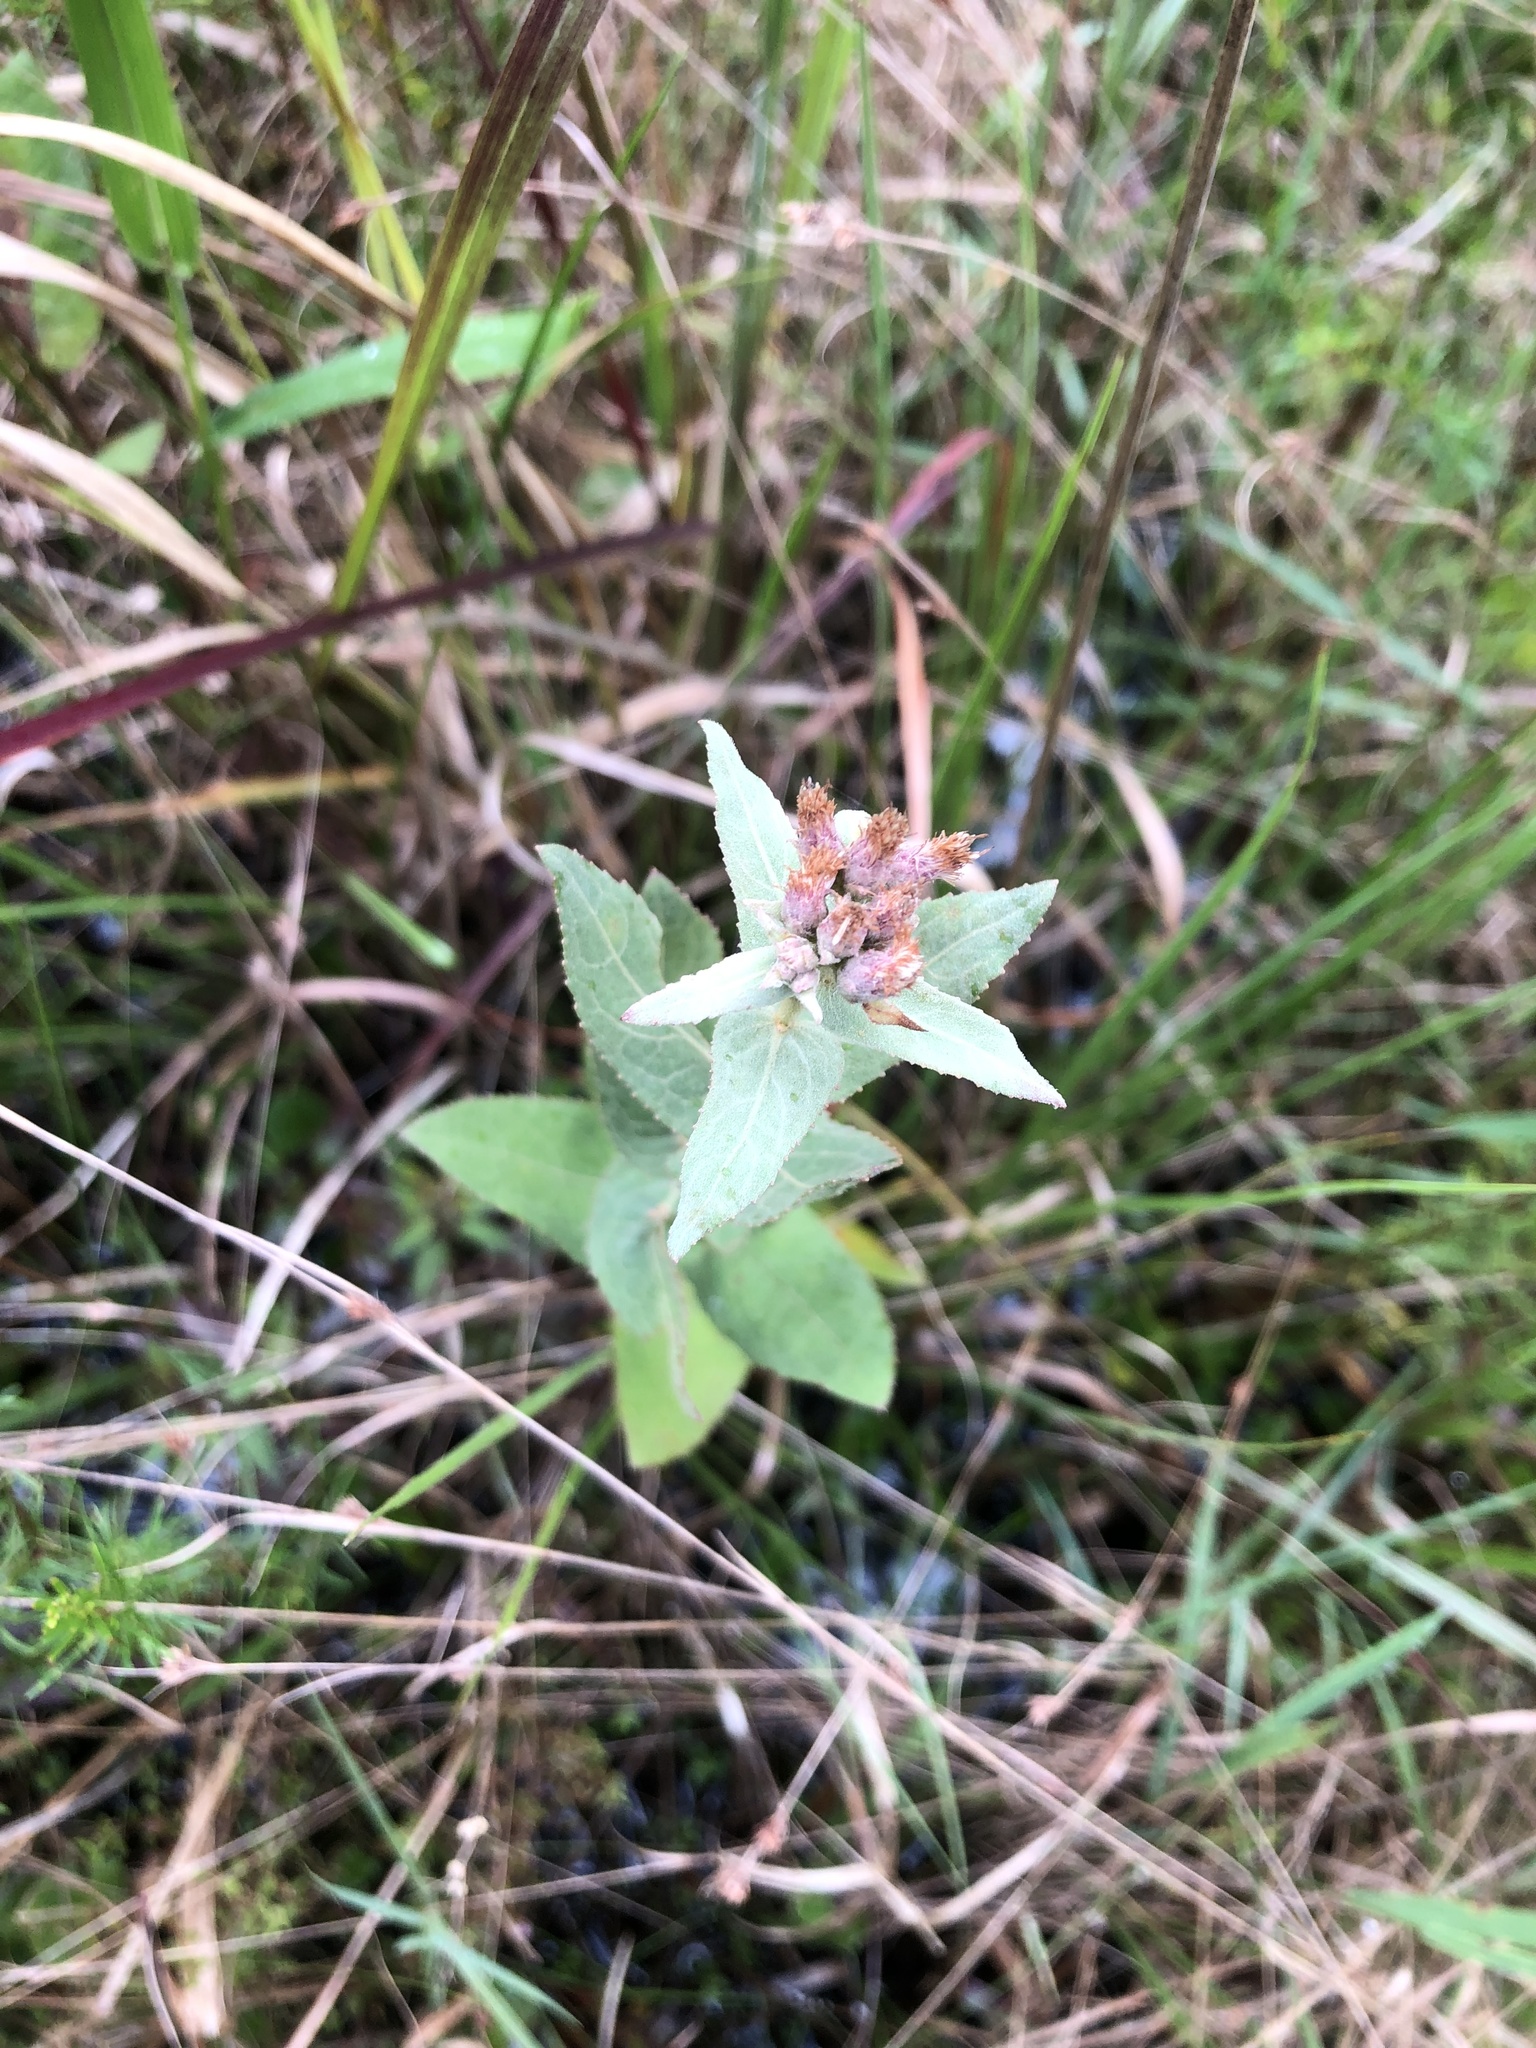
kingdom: Plantae
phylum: Tracheophyta
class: Magnoliopsida
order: Asterales
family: Asteraceae
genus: Pluchea
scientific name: Pluchea baccharis
